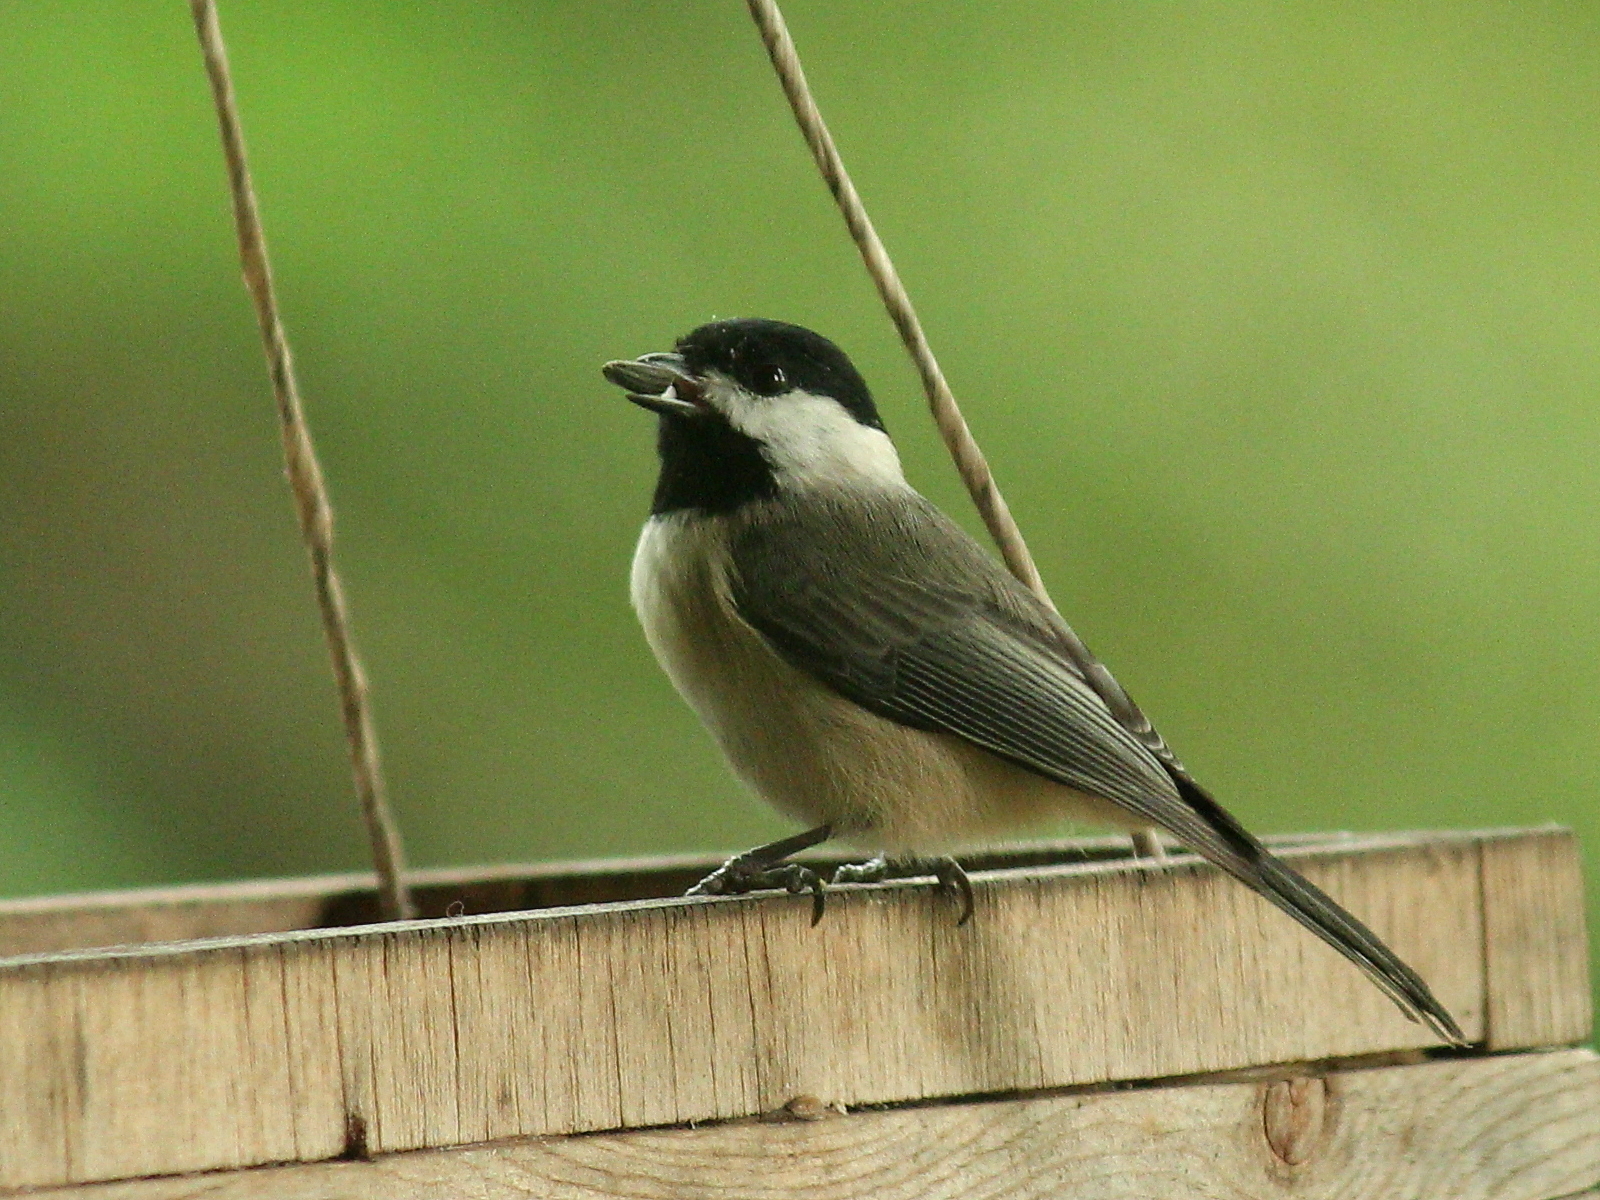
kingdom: Animalia
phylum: Chordata
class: Aves
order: Passeriformes
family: Paridae
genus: Poecile
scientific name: Poecile carolinensis
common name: Carolina chickadee
